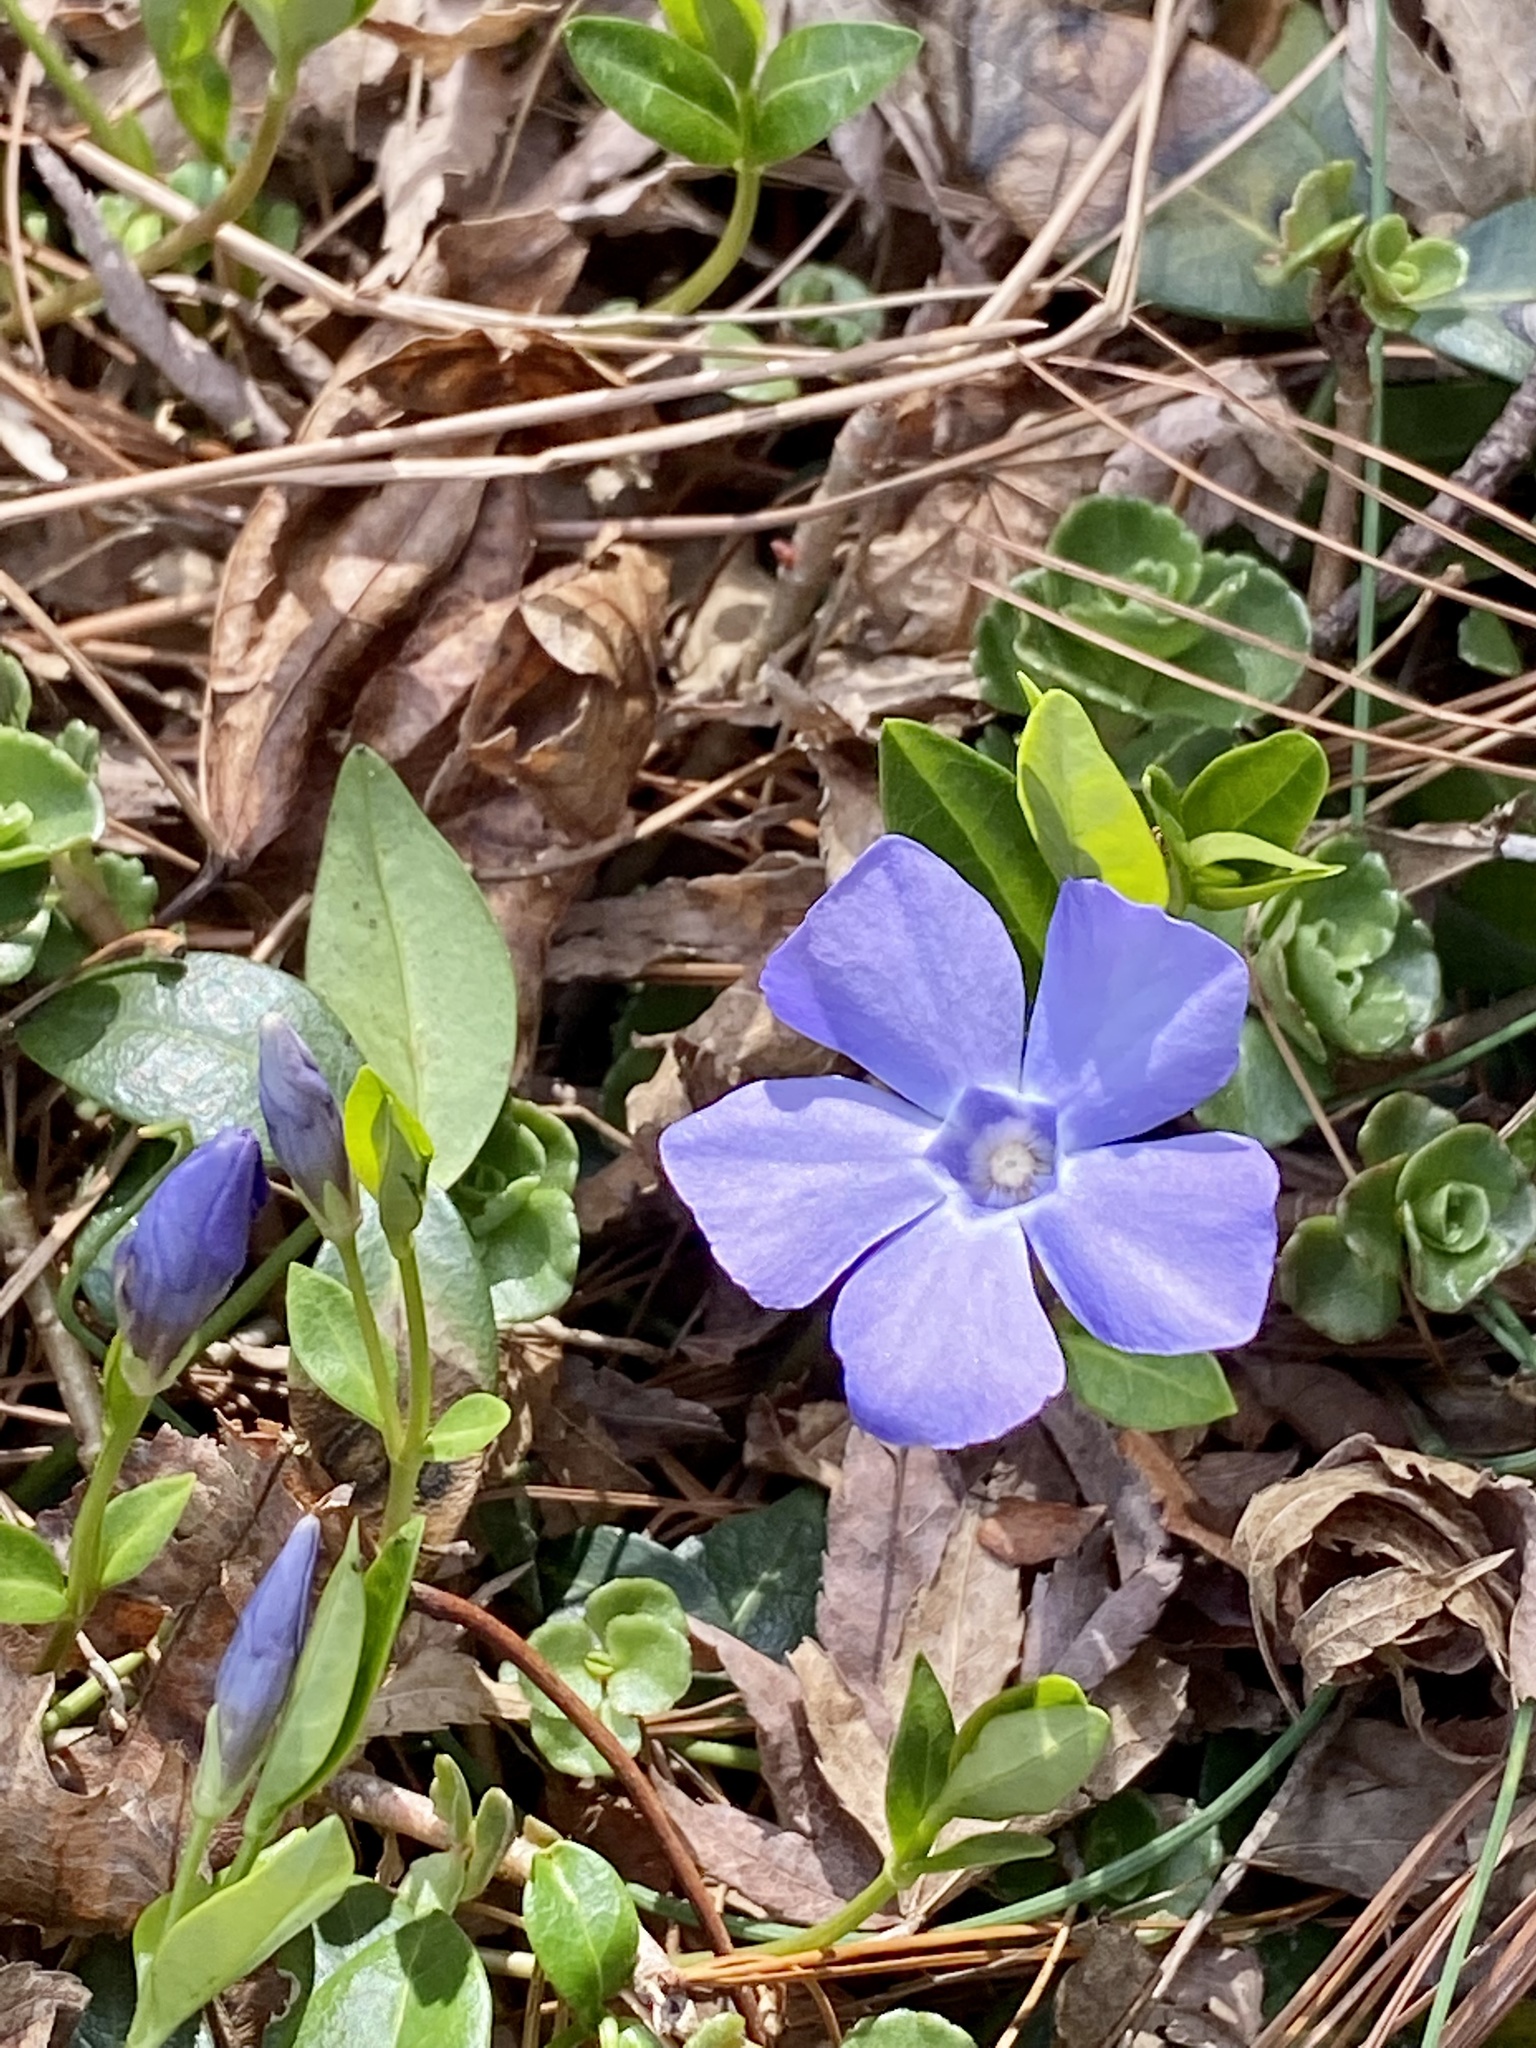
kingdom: Plantae
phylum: Tracheophyta
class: Magnoliopsida
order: Gentianales
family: Apocynaceae
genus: Vinca
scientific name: Vinca minor
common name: Lesser periwinkle
